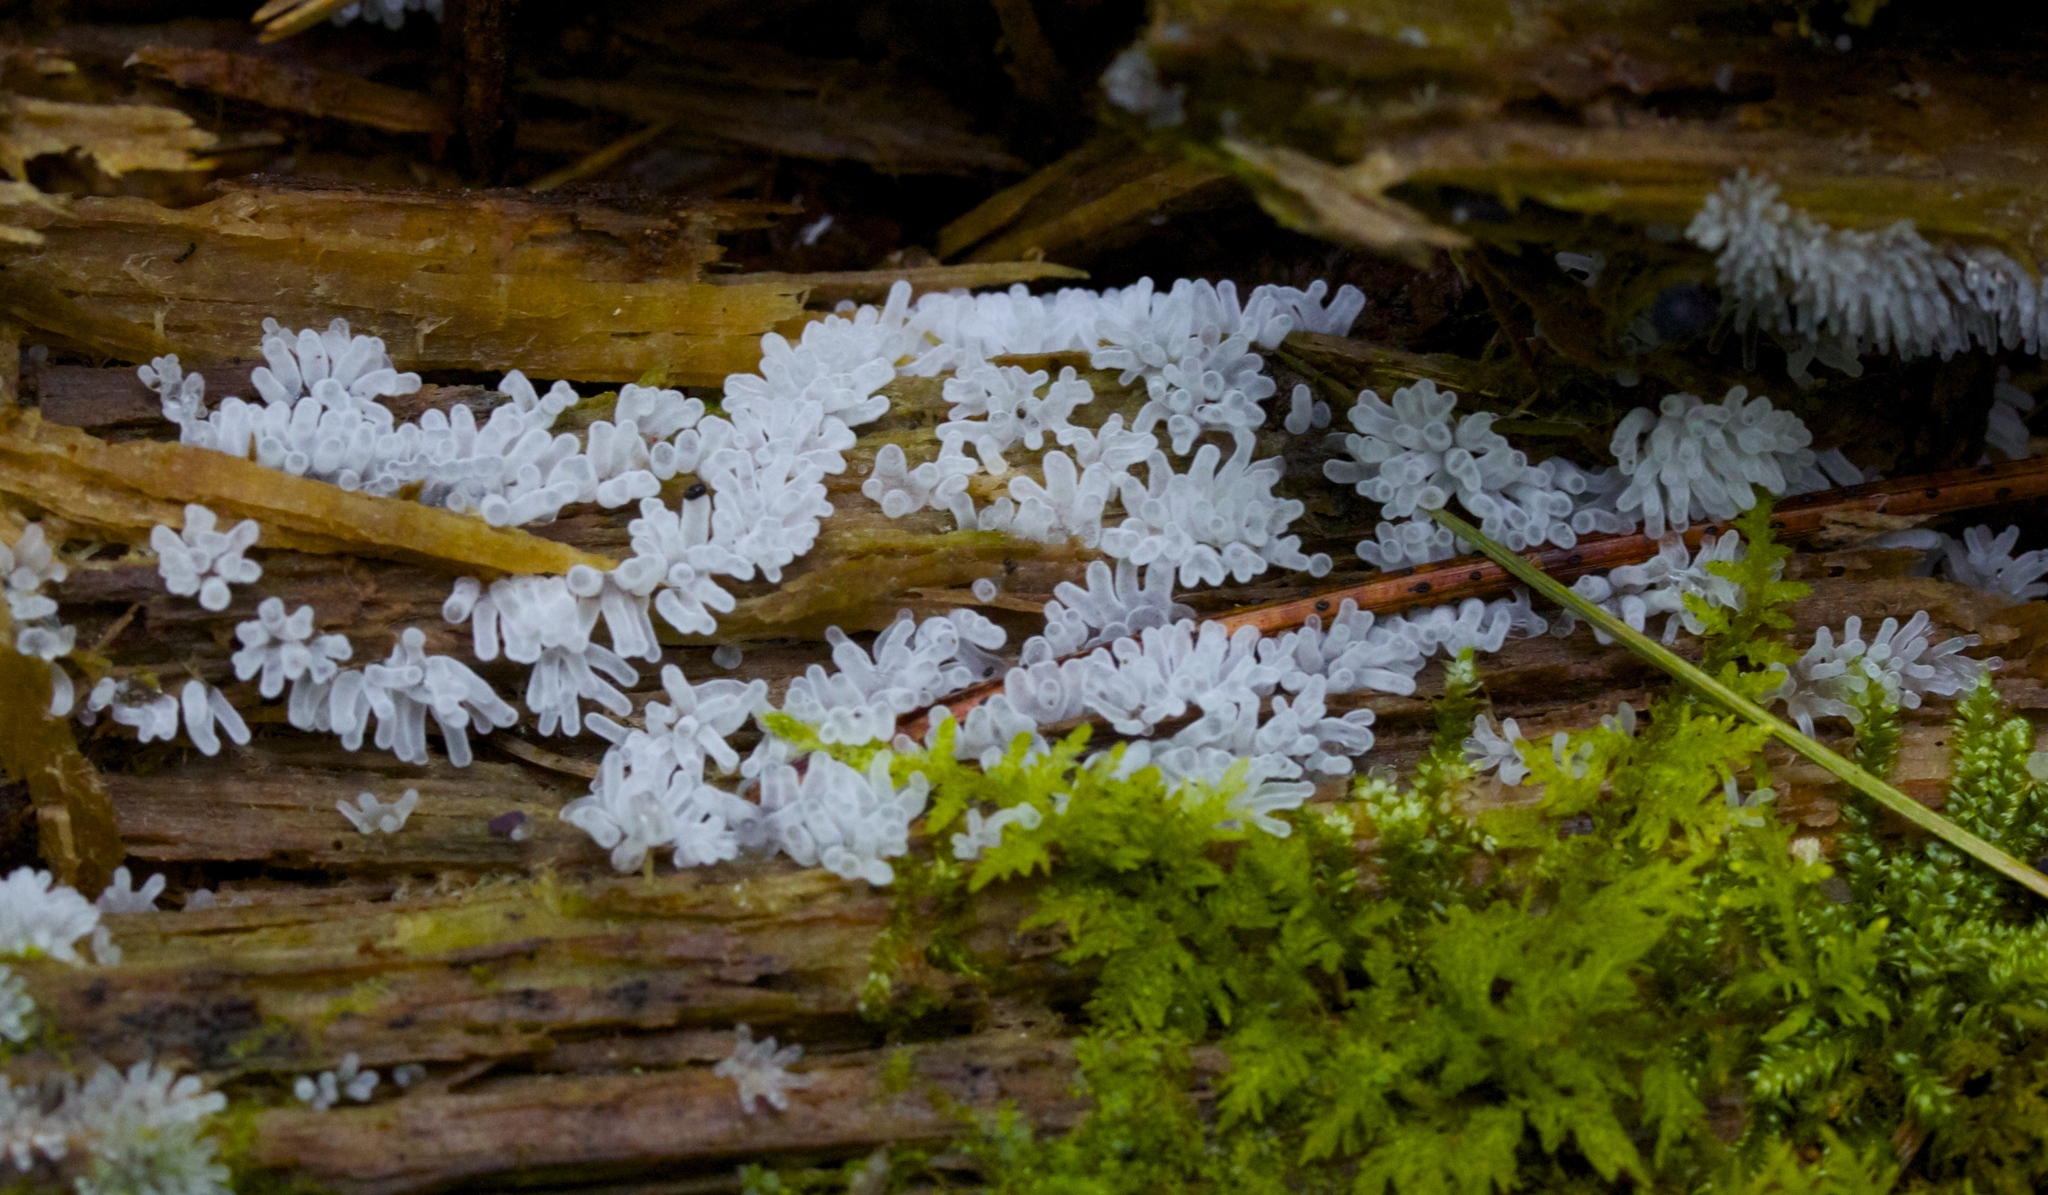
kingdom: Protozoa
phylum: Mycetozoa
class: Protosteliomycetes
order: Ceratiomyxales
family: Ceratiomyxaceae
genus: Ceratiomyxa
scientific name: Ceratiomyxa fruticulosa
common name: Honeycomb coral slime mold
